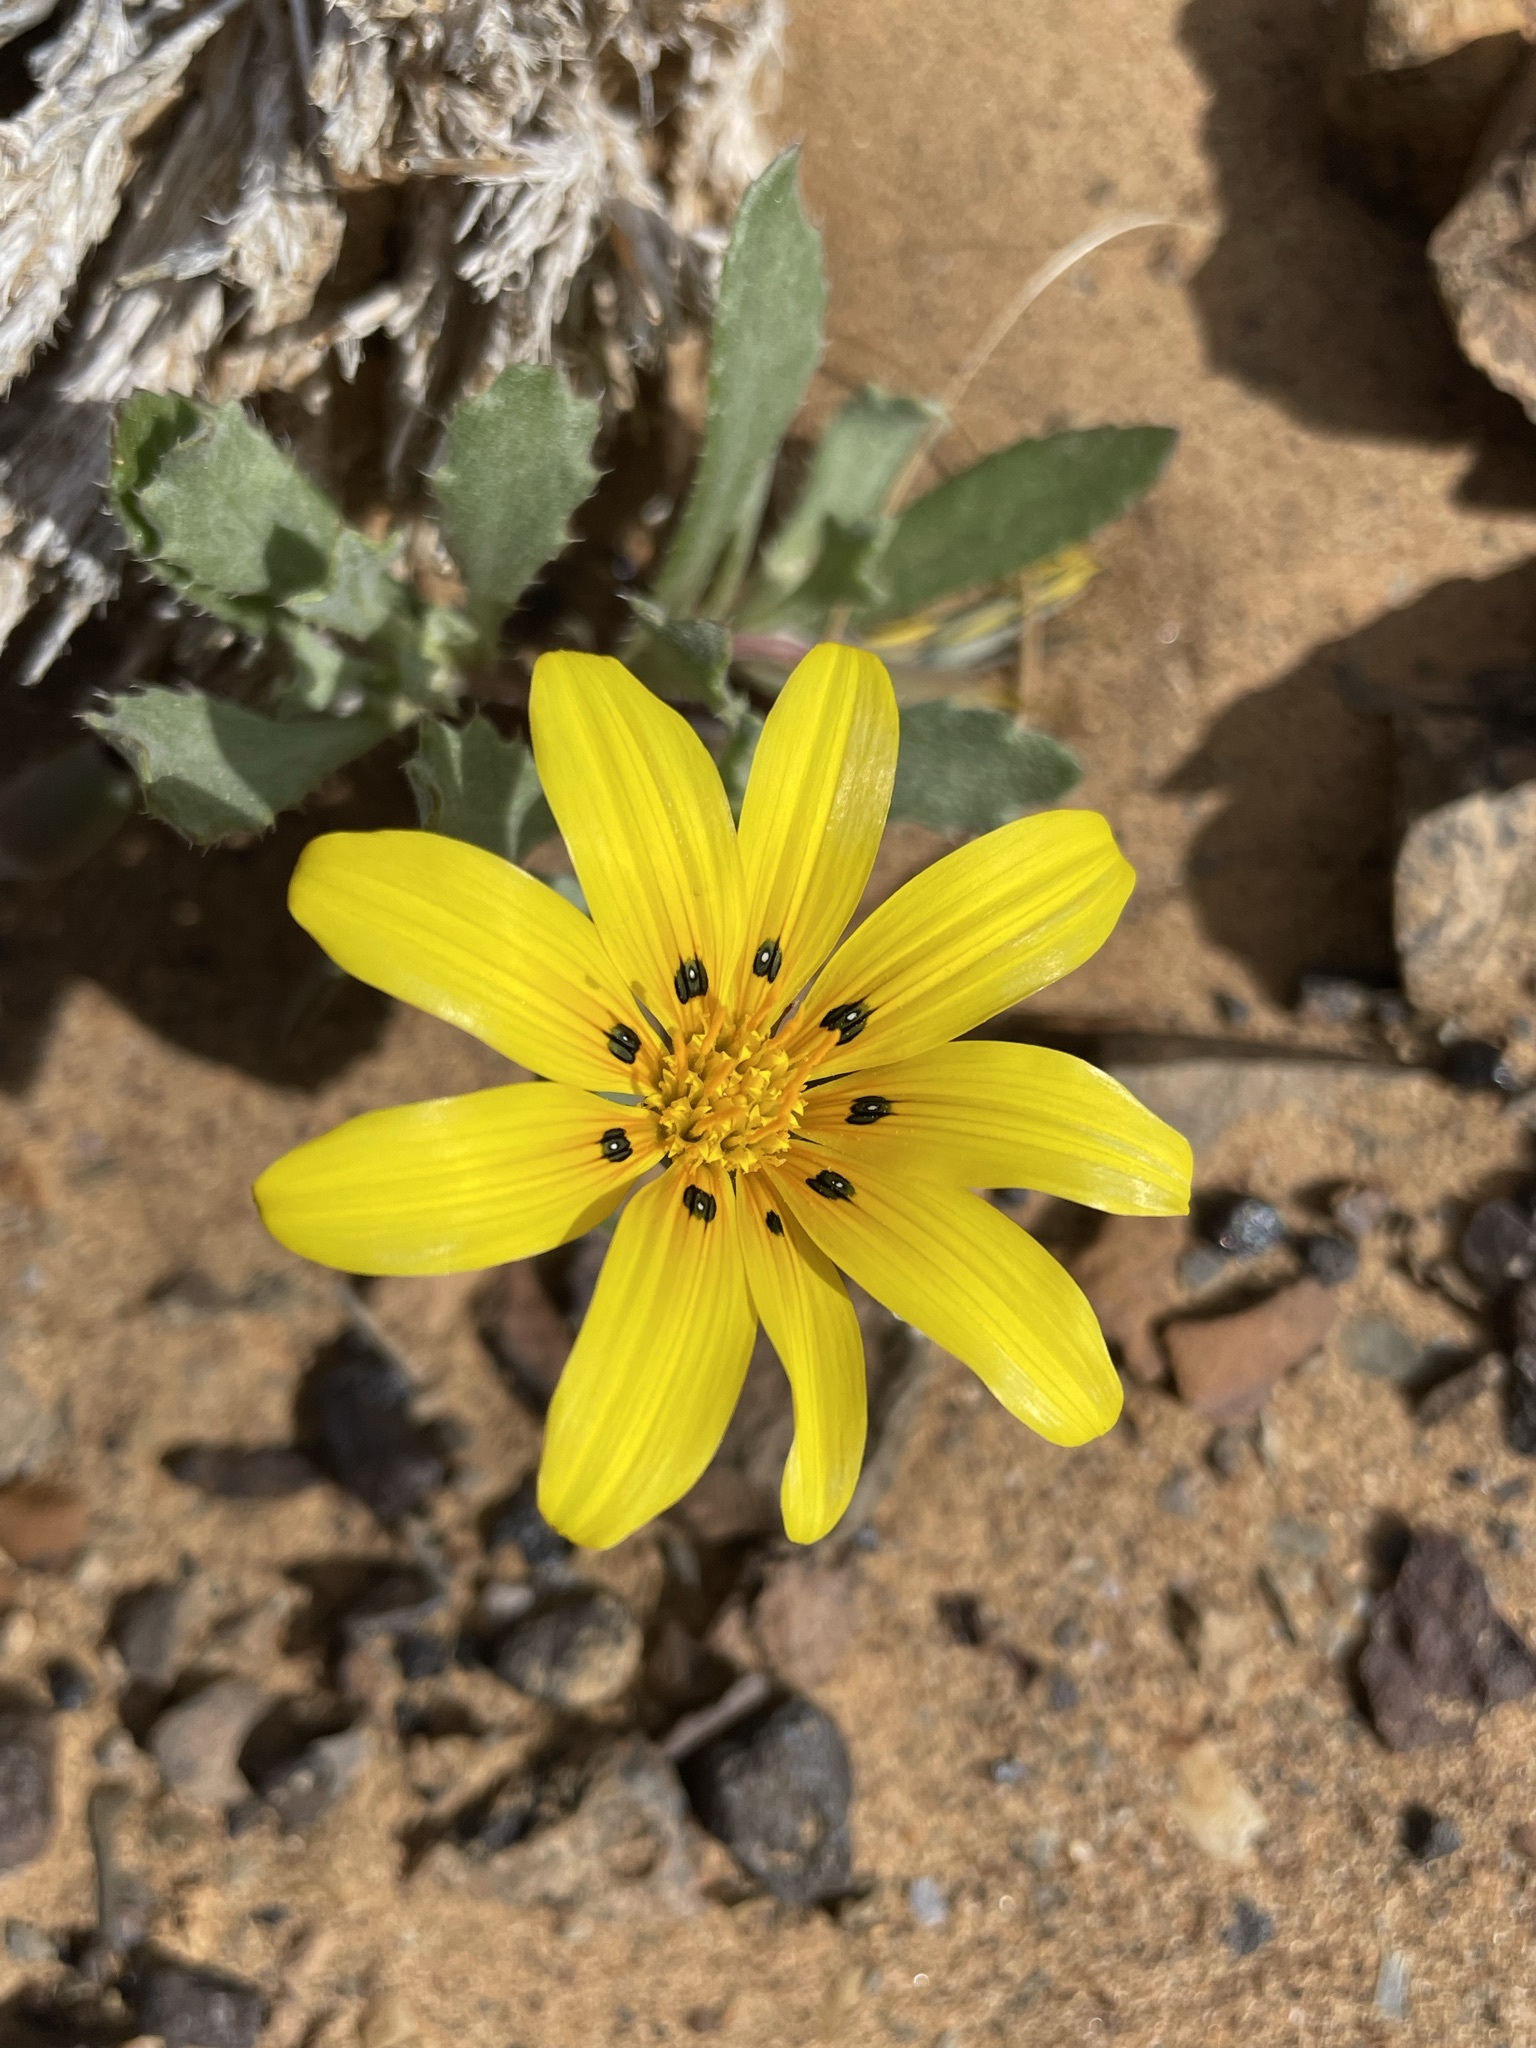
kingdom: Plantae
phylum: Tracheophyta
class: Magnoliopsida
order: Asterales
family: Asteraceae
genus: Gazania
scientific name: Gazania lichtensteinii
